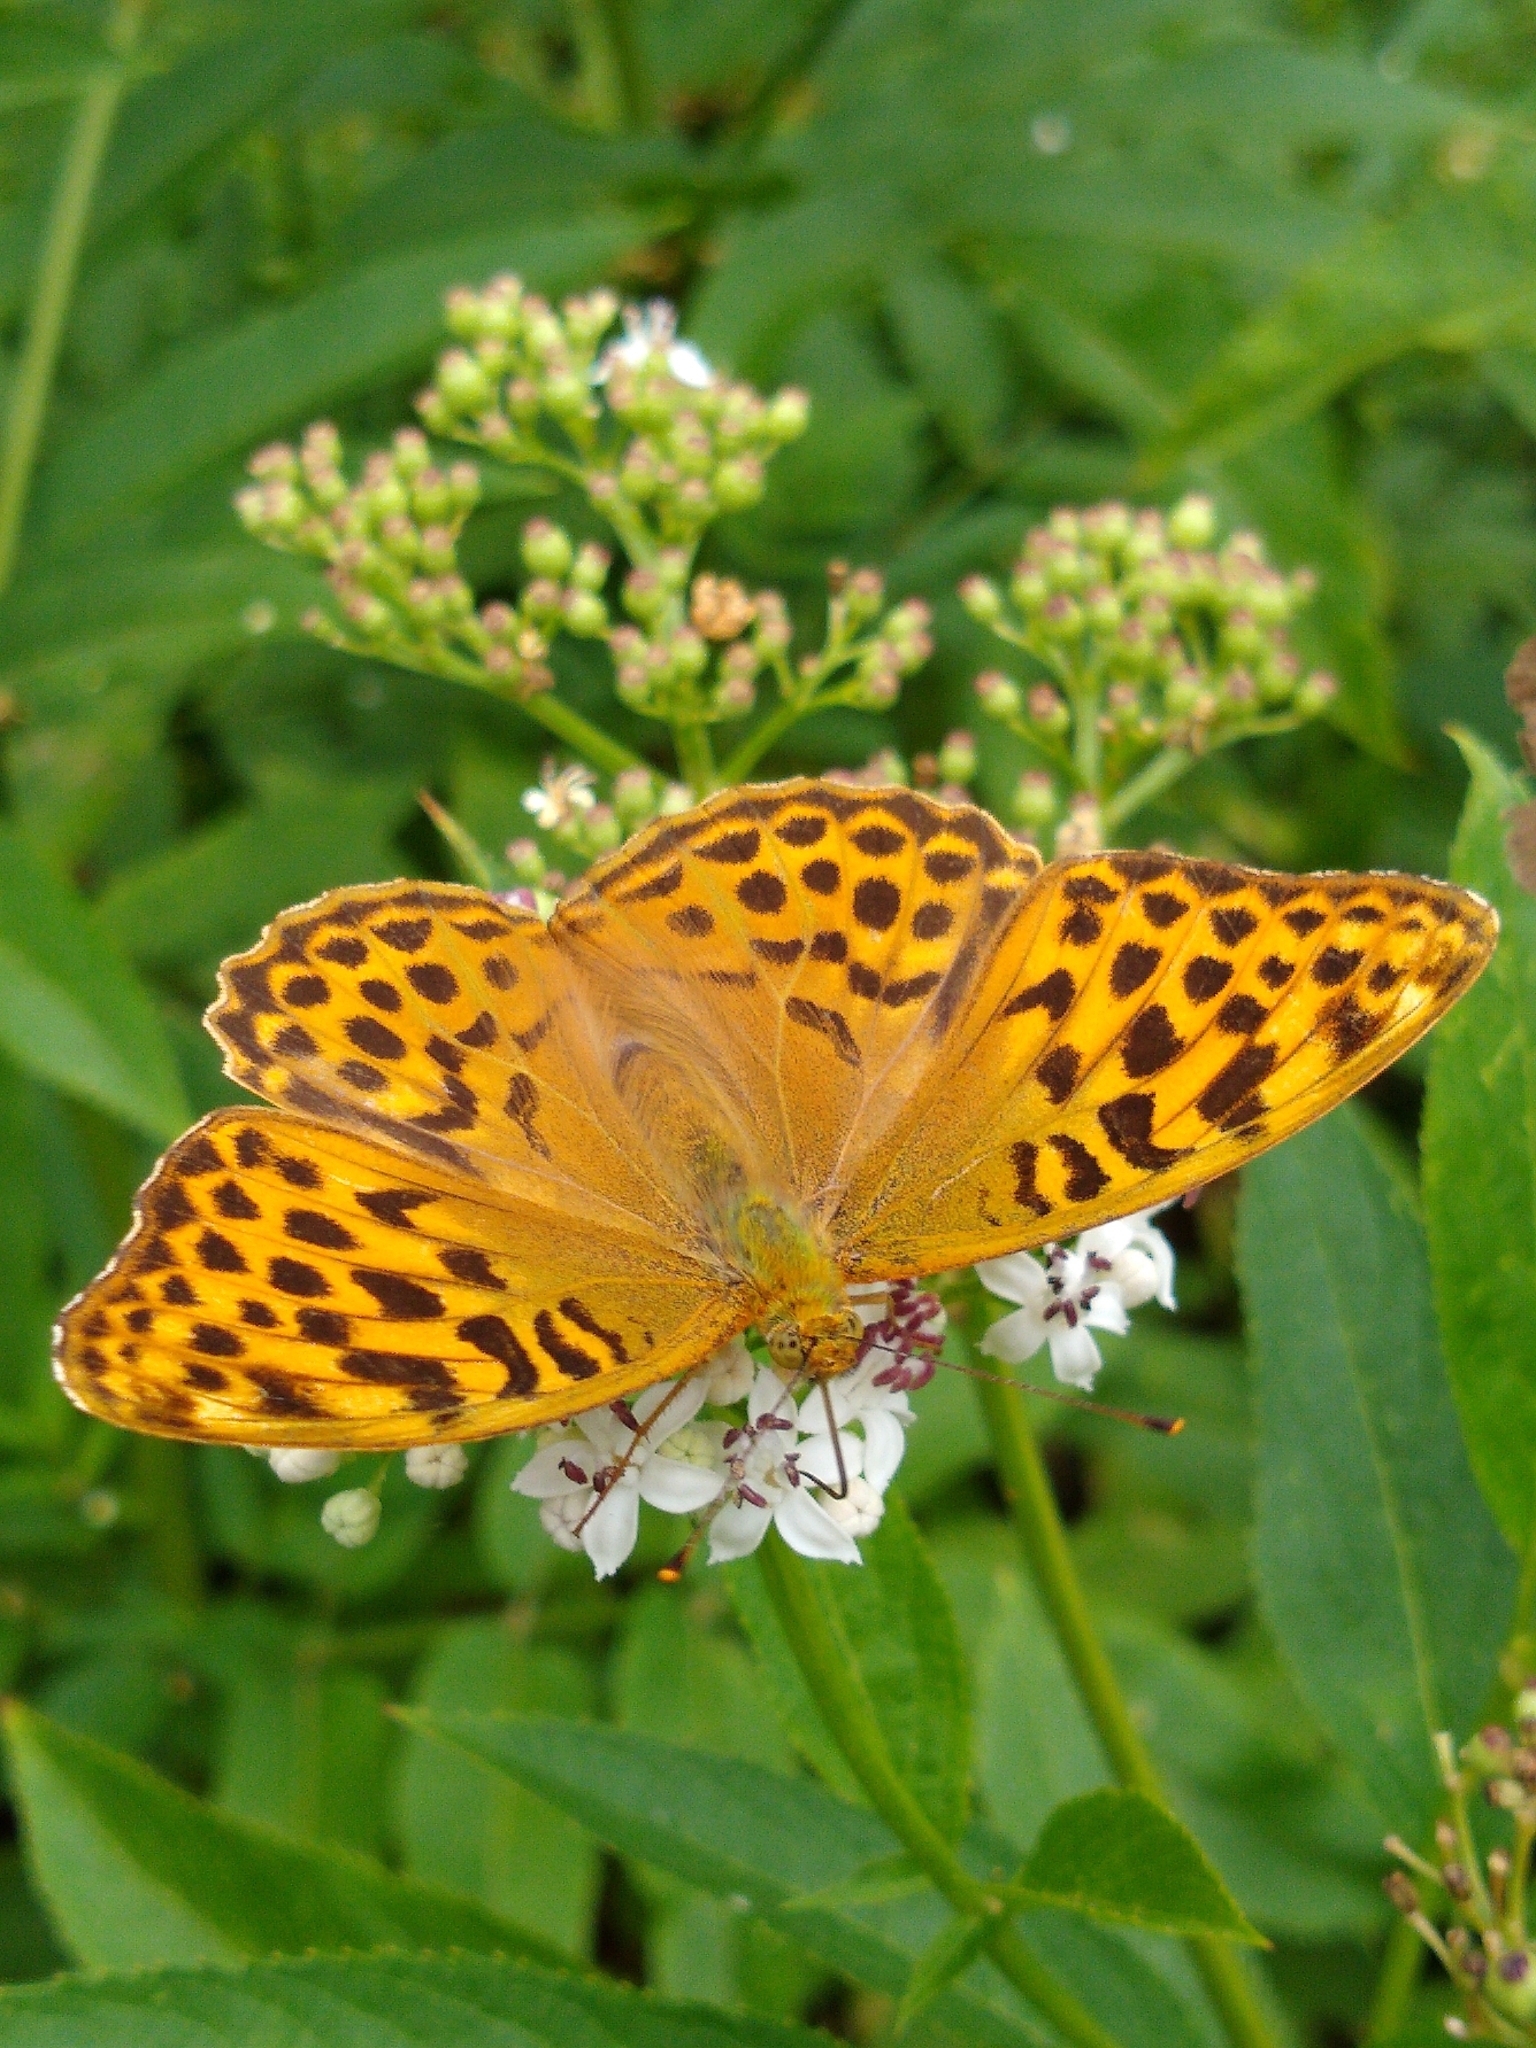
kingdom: Animalia
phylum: Arthropoda
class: Insecta
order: Lepidoptera
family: Nymphalidae
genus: Argynnis
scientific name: Argynnis paphia
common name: Silver-washed fritillary
